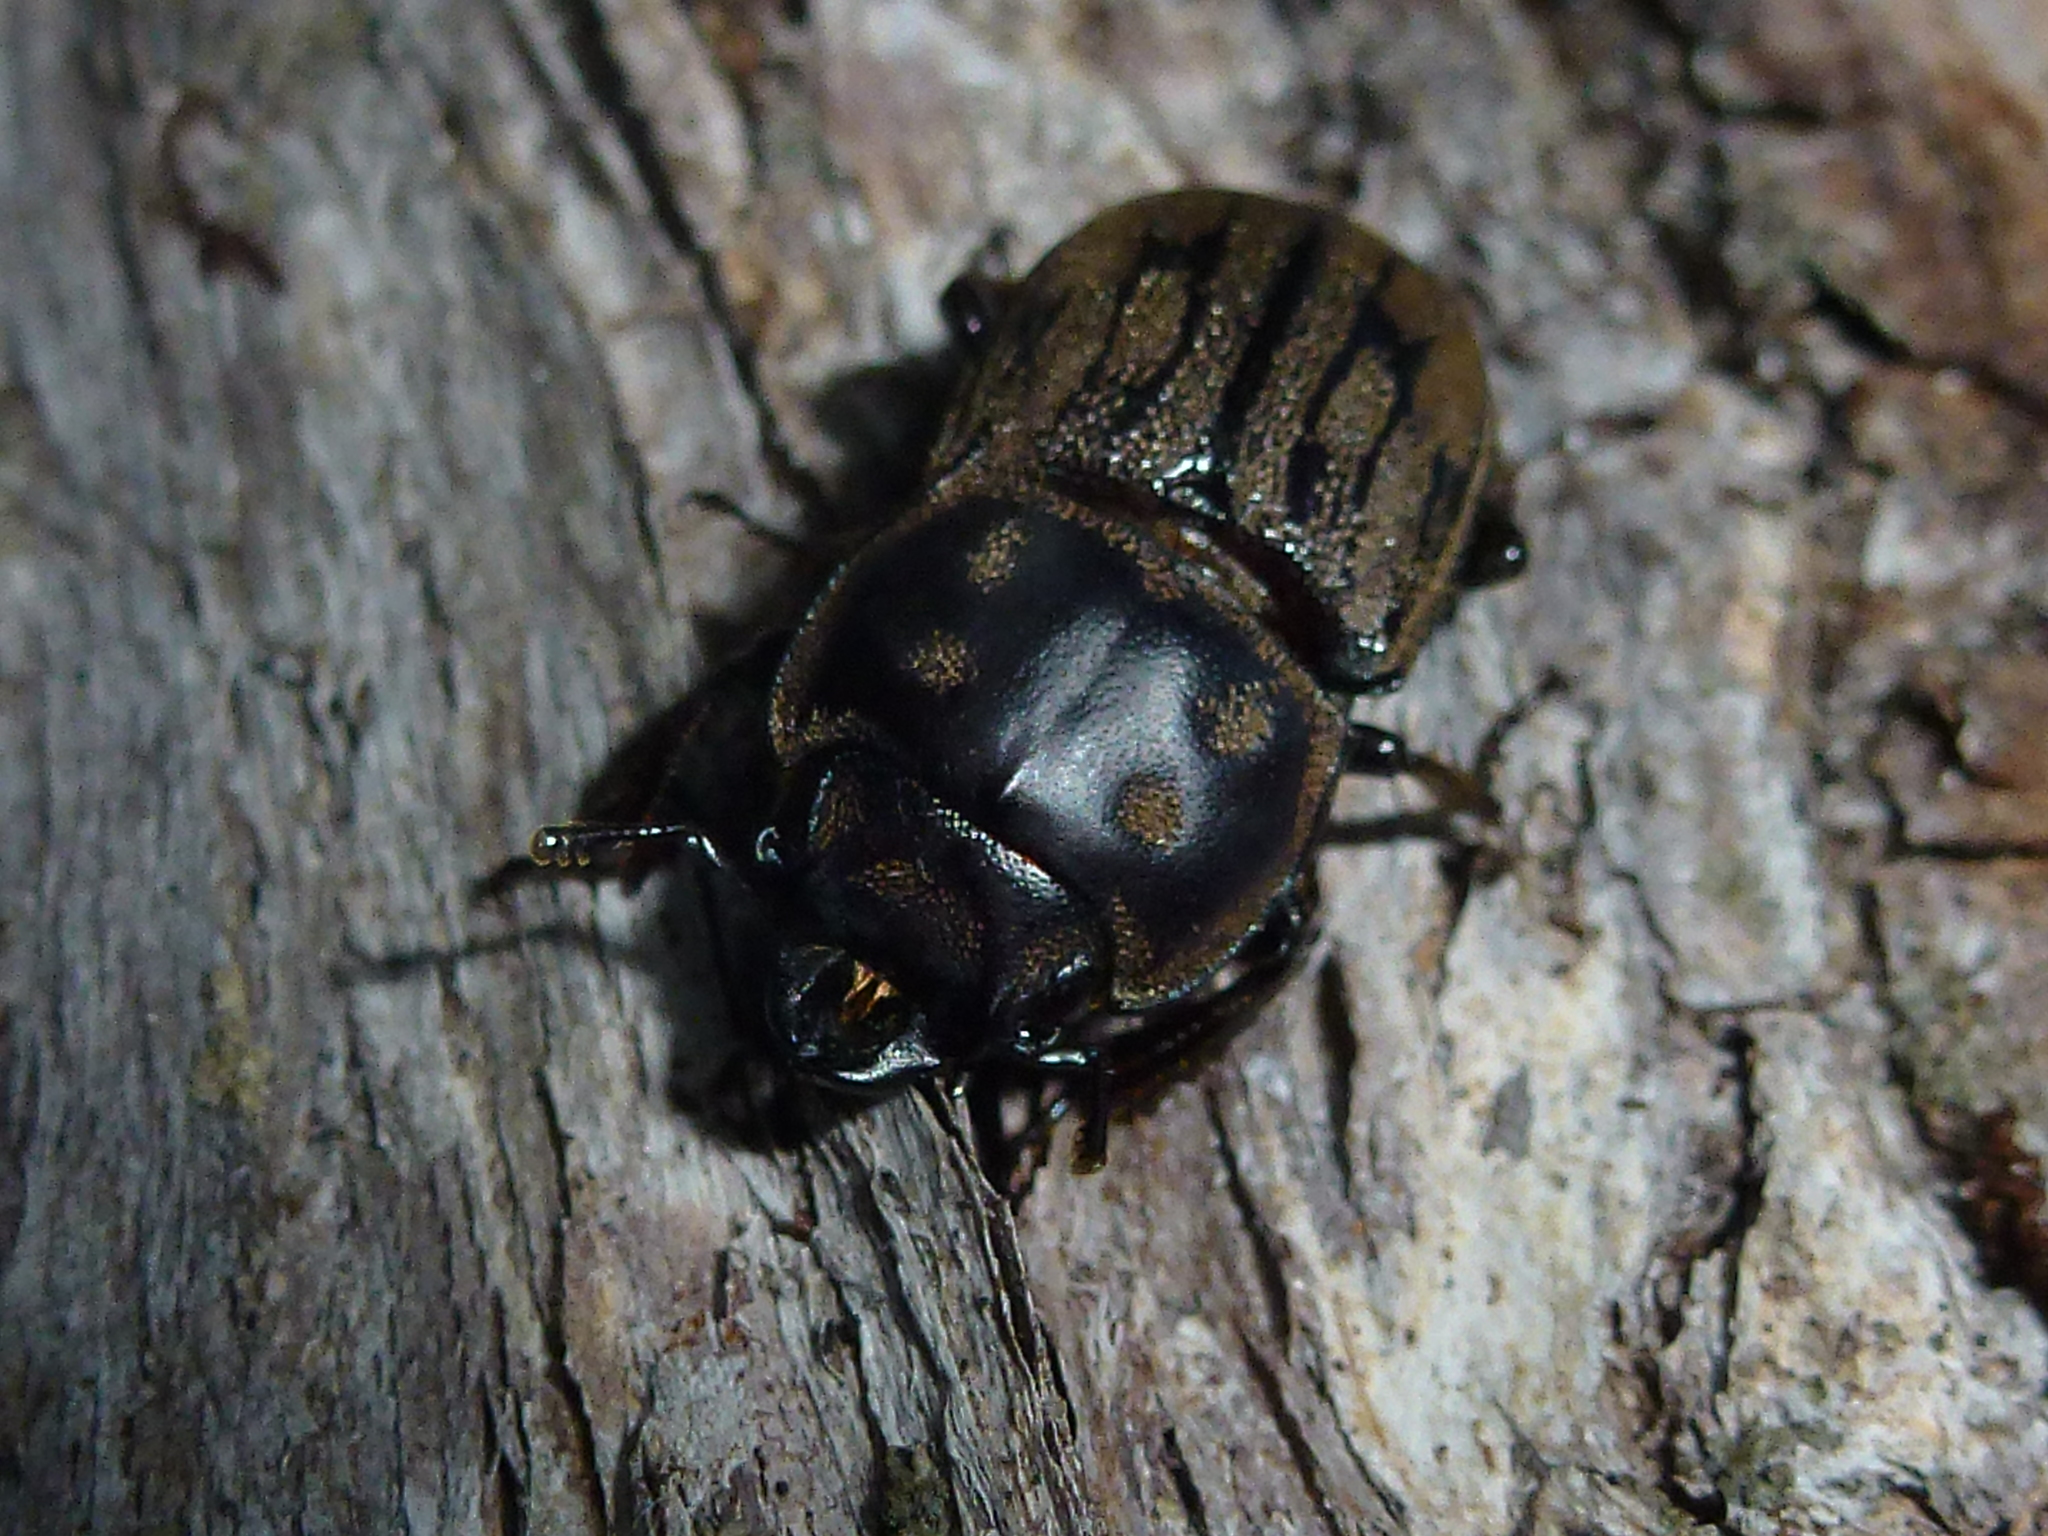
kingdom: Animalia
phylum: Arthropoda
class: Insecta
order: Coleoptera
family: Lucanidae
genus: Paralissotes
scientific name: Paralissotes reticulatus
